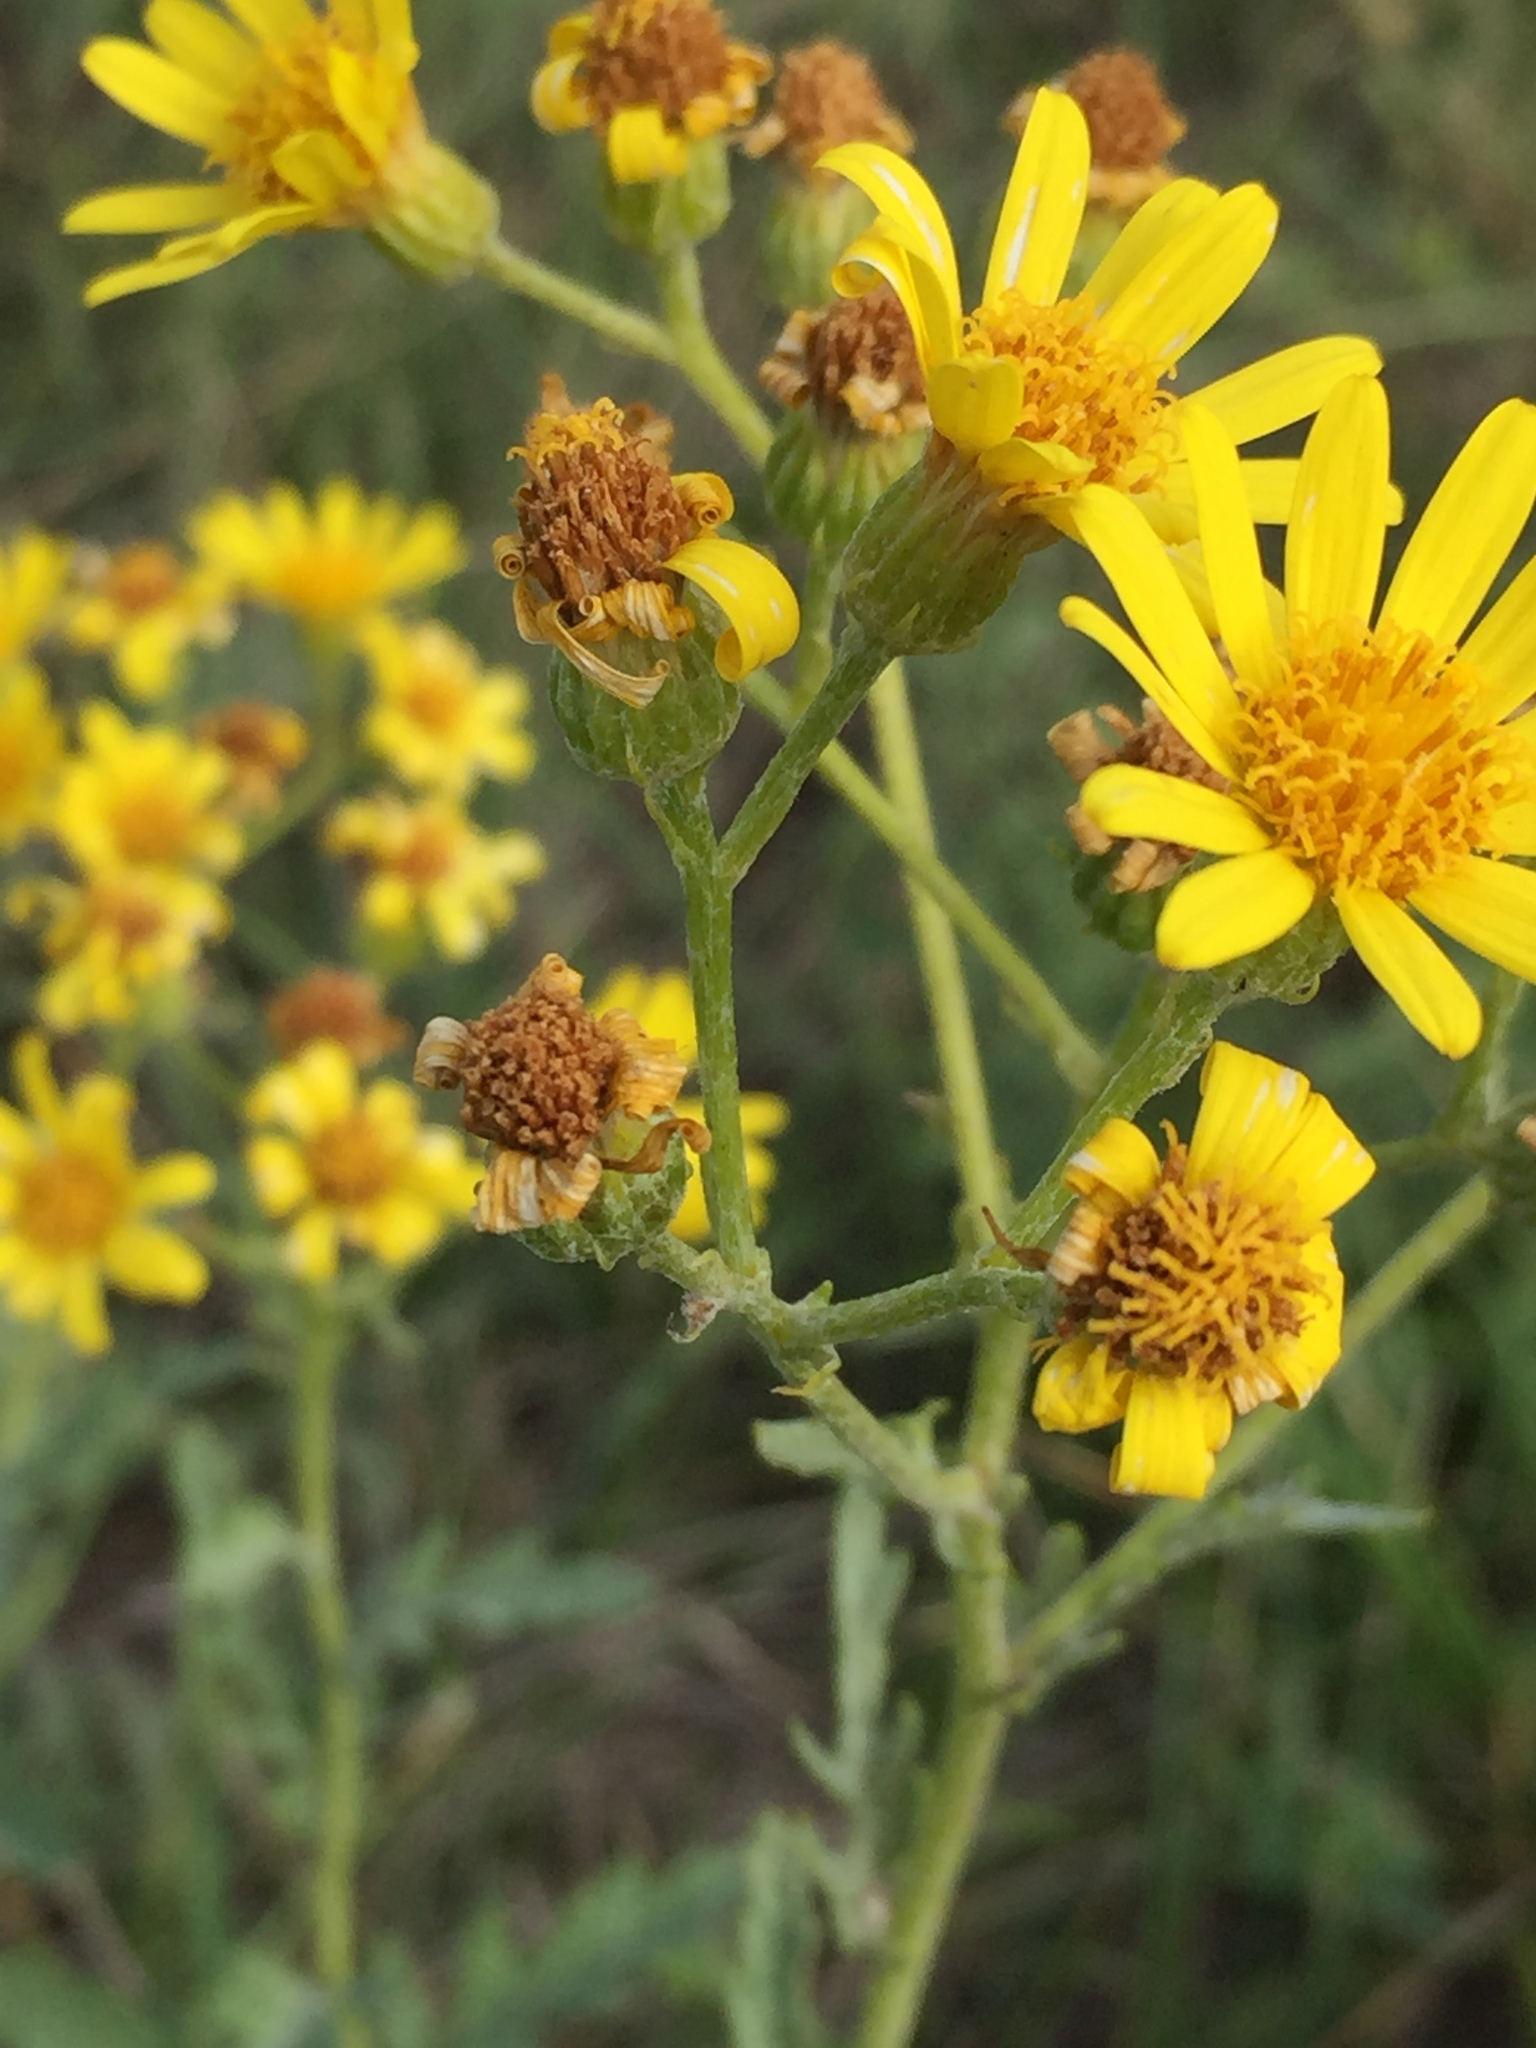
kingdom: Plantae
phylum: Tracheophyta
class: Magnoliopsida
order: Asterales
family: Asteraceae
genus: Jacobaea
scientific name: Jacobaea erucifolia
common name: Hoary ragwort
